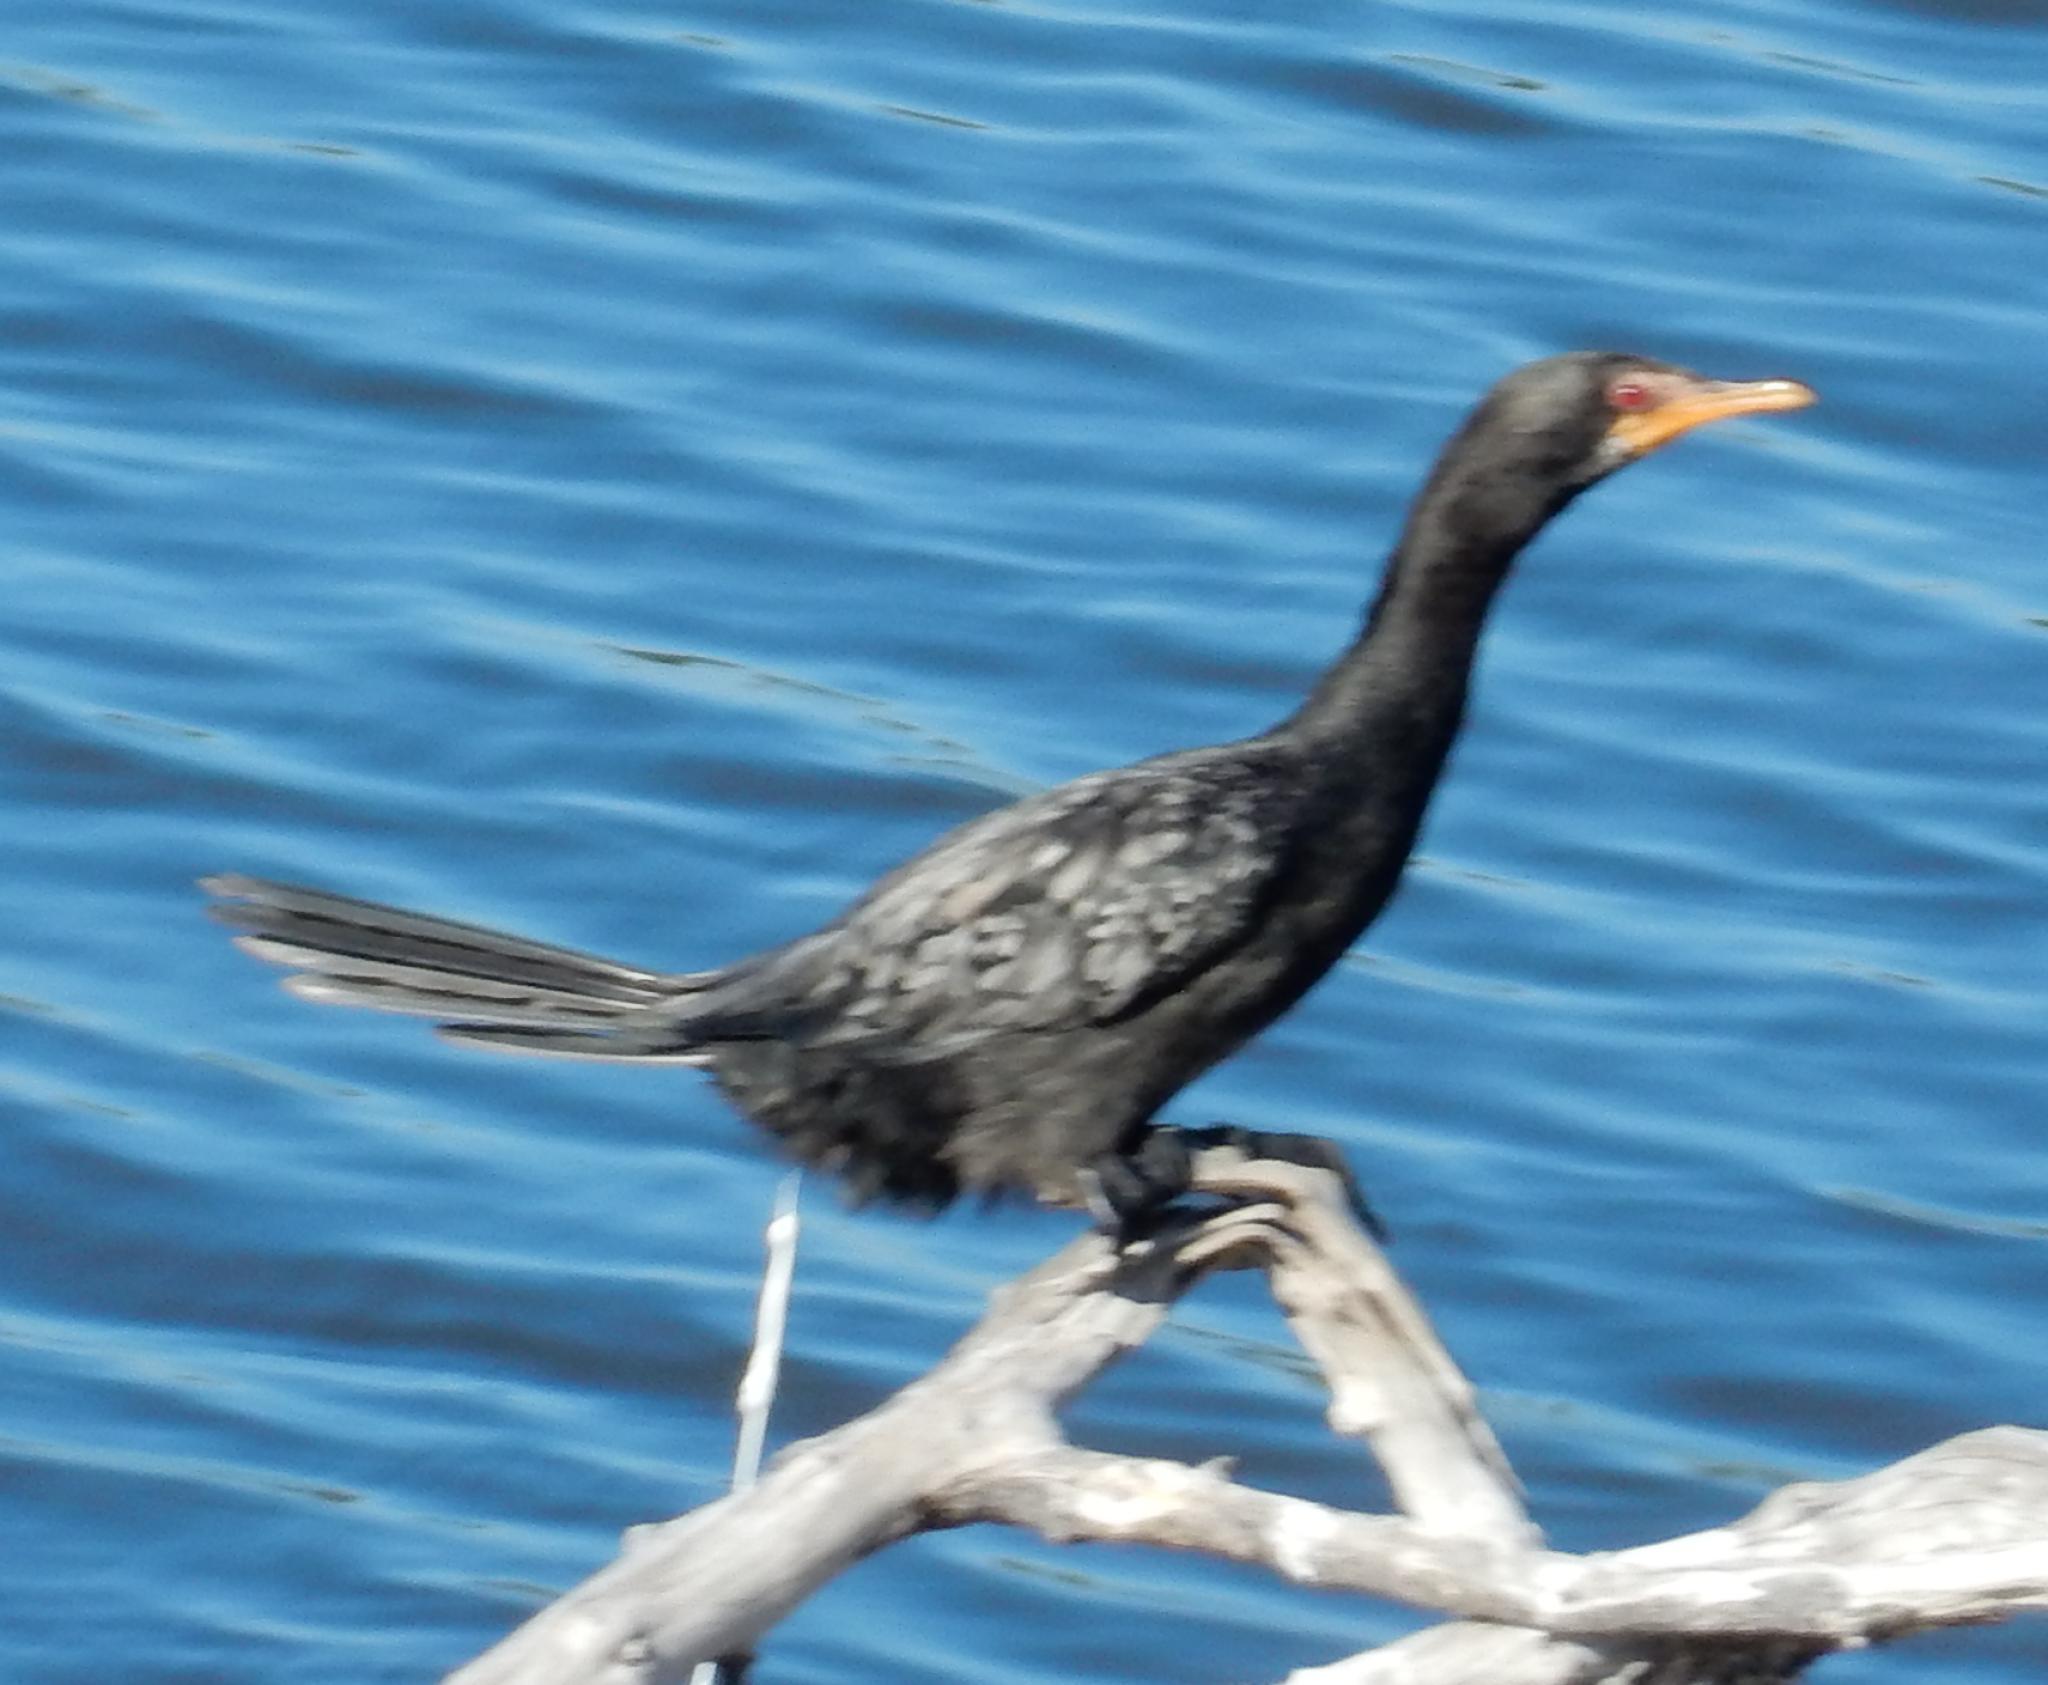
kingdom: Animalia
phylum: Chordata
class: Aves
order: Suliformes
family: Phalacrocoracidae
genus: Microcarbo
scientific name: Microcarbo africanus
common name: Long-tailed cormorant
